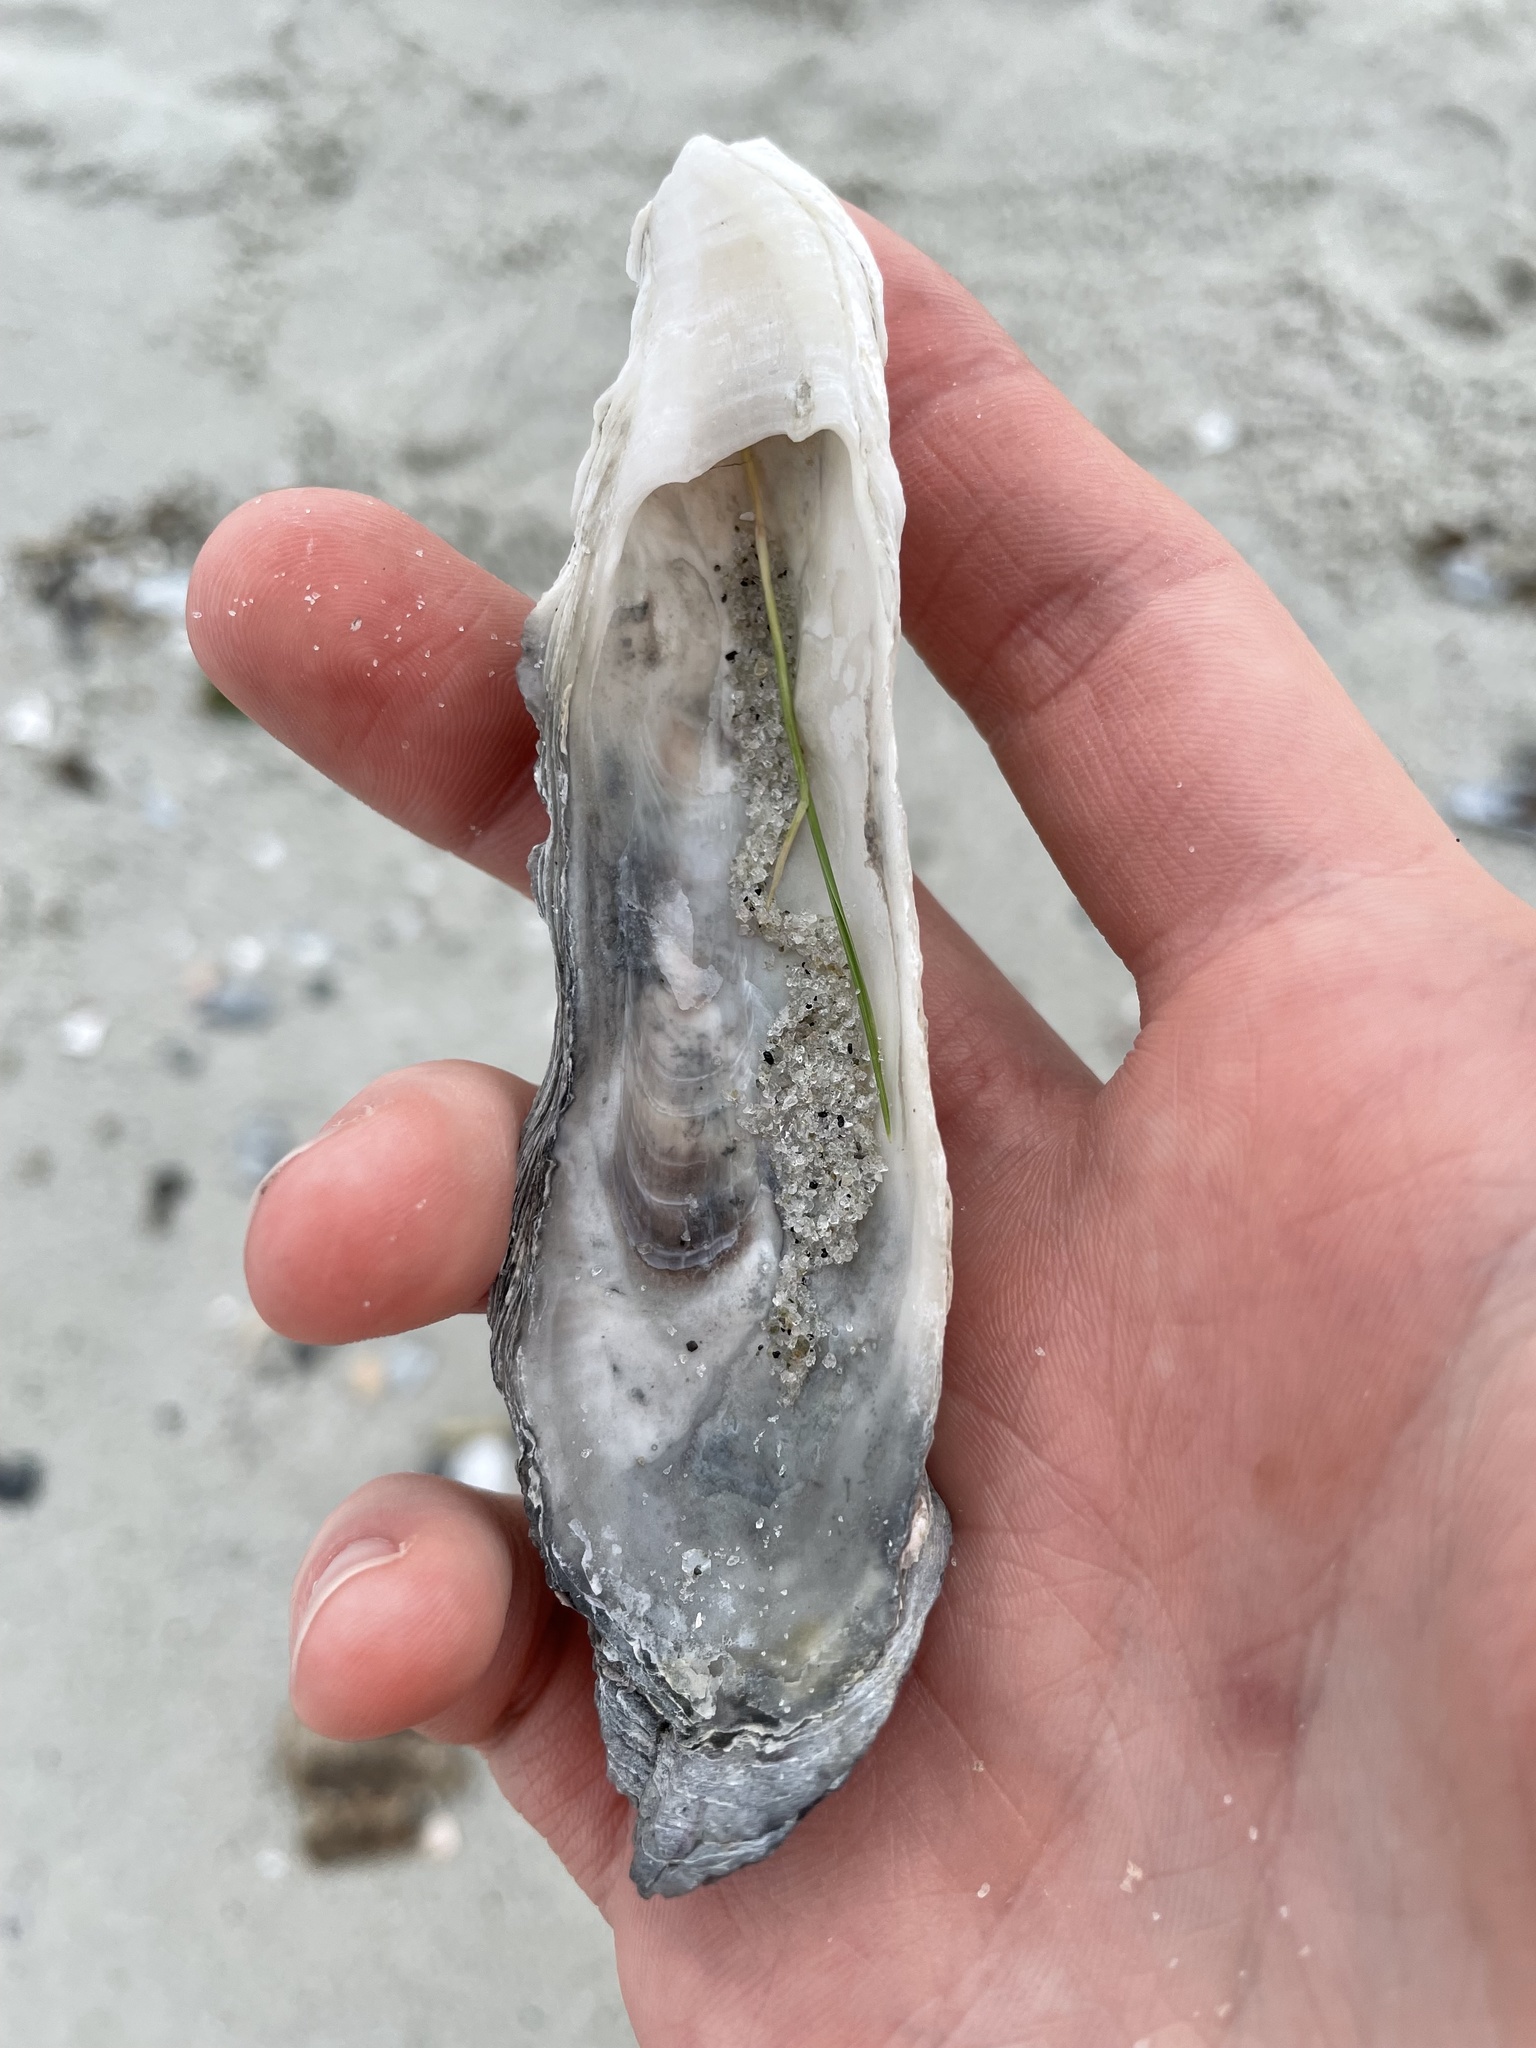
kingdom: Animalia
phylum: Mollusca
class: Bivalvia
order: Ostreida
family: Ostreidae
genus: Crassostrea
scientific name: Crassostrea virginica
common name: American oyster
